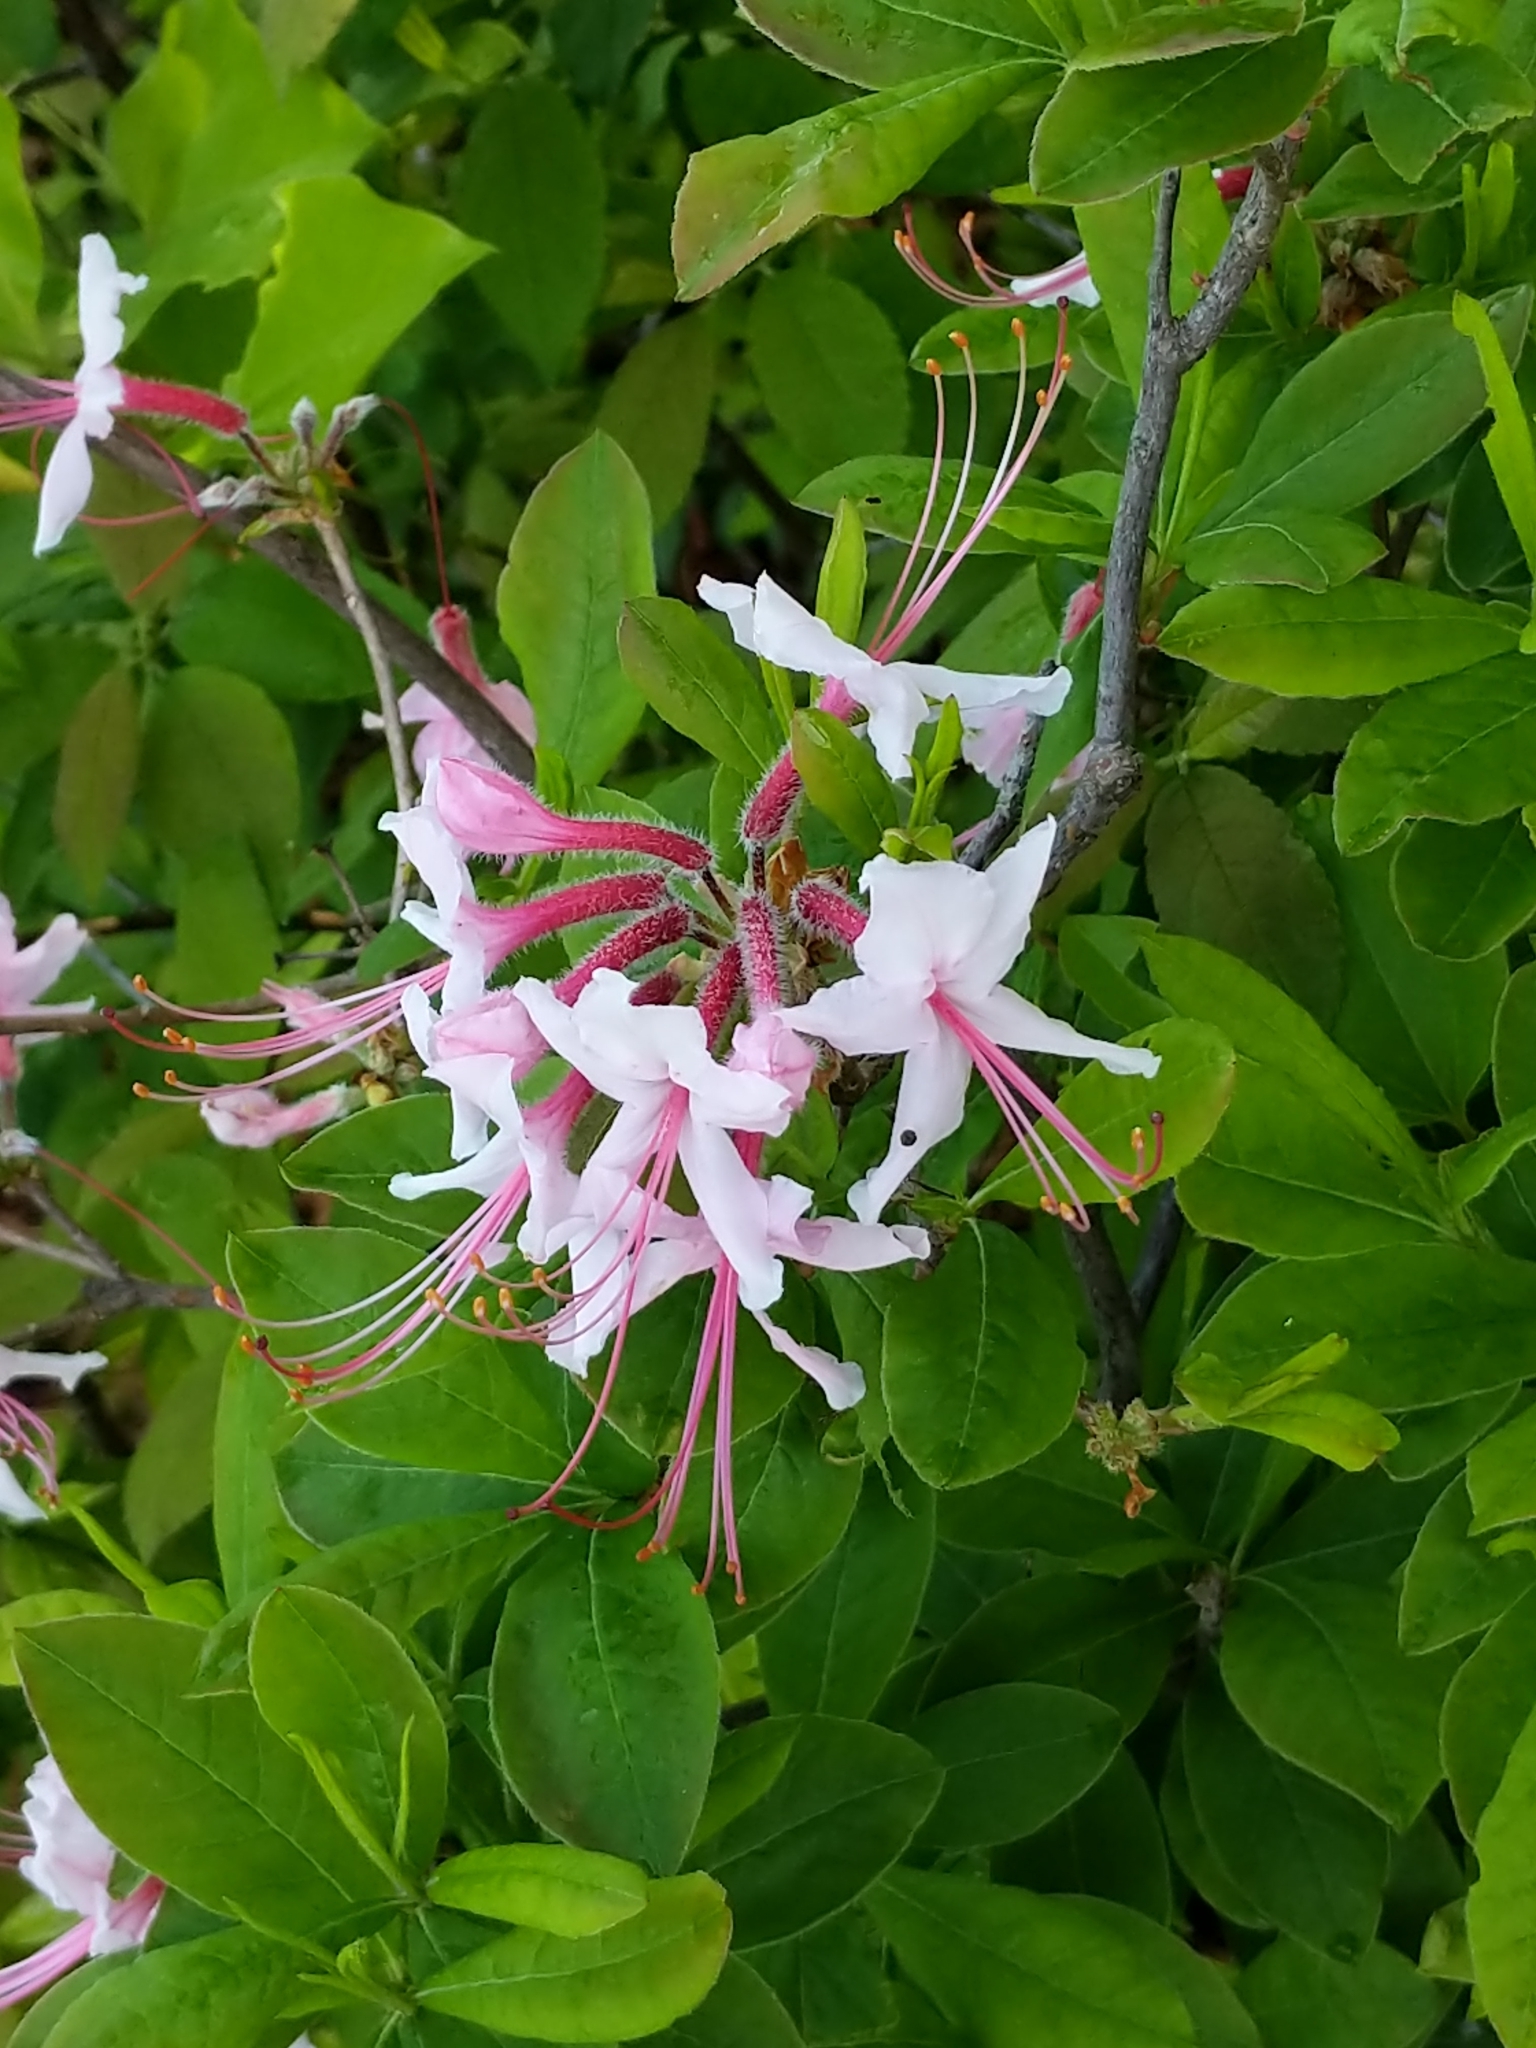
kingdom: Plantae
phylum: Tracheophyta
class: Magnoliopsida
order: Ericales
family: Ericaceae
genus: Rhododendron
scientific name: Rhododendron periclymenoides
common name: Election-pink
